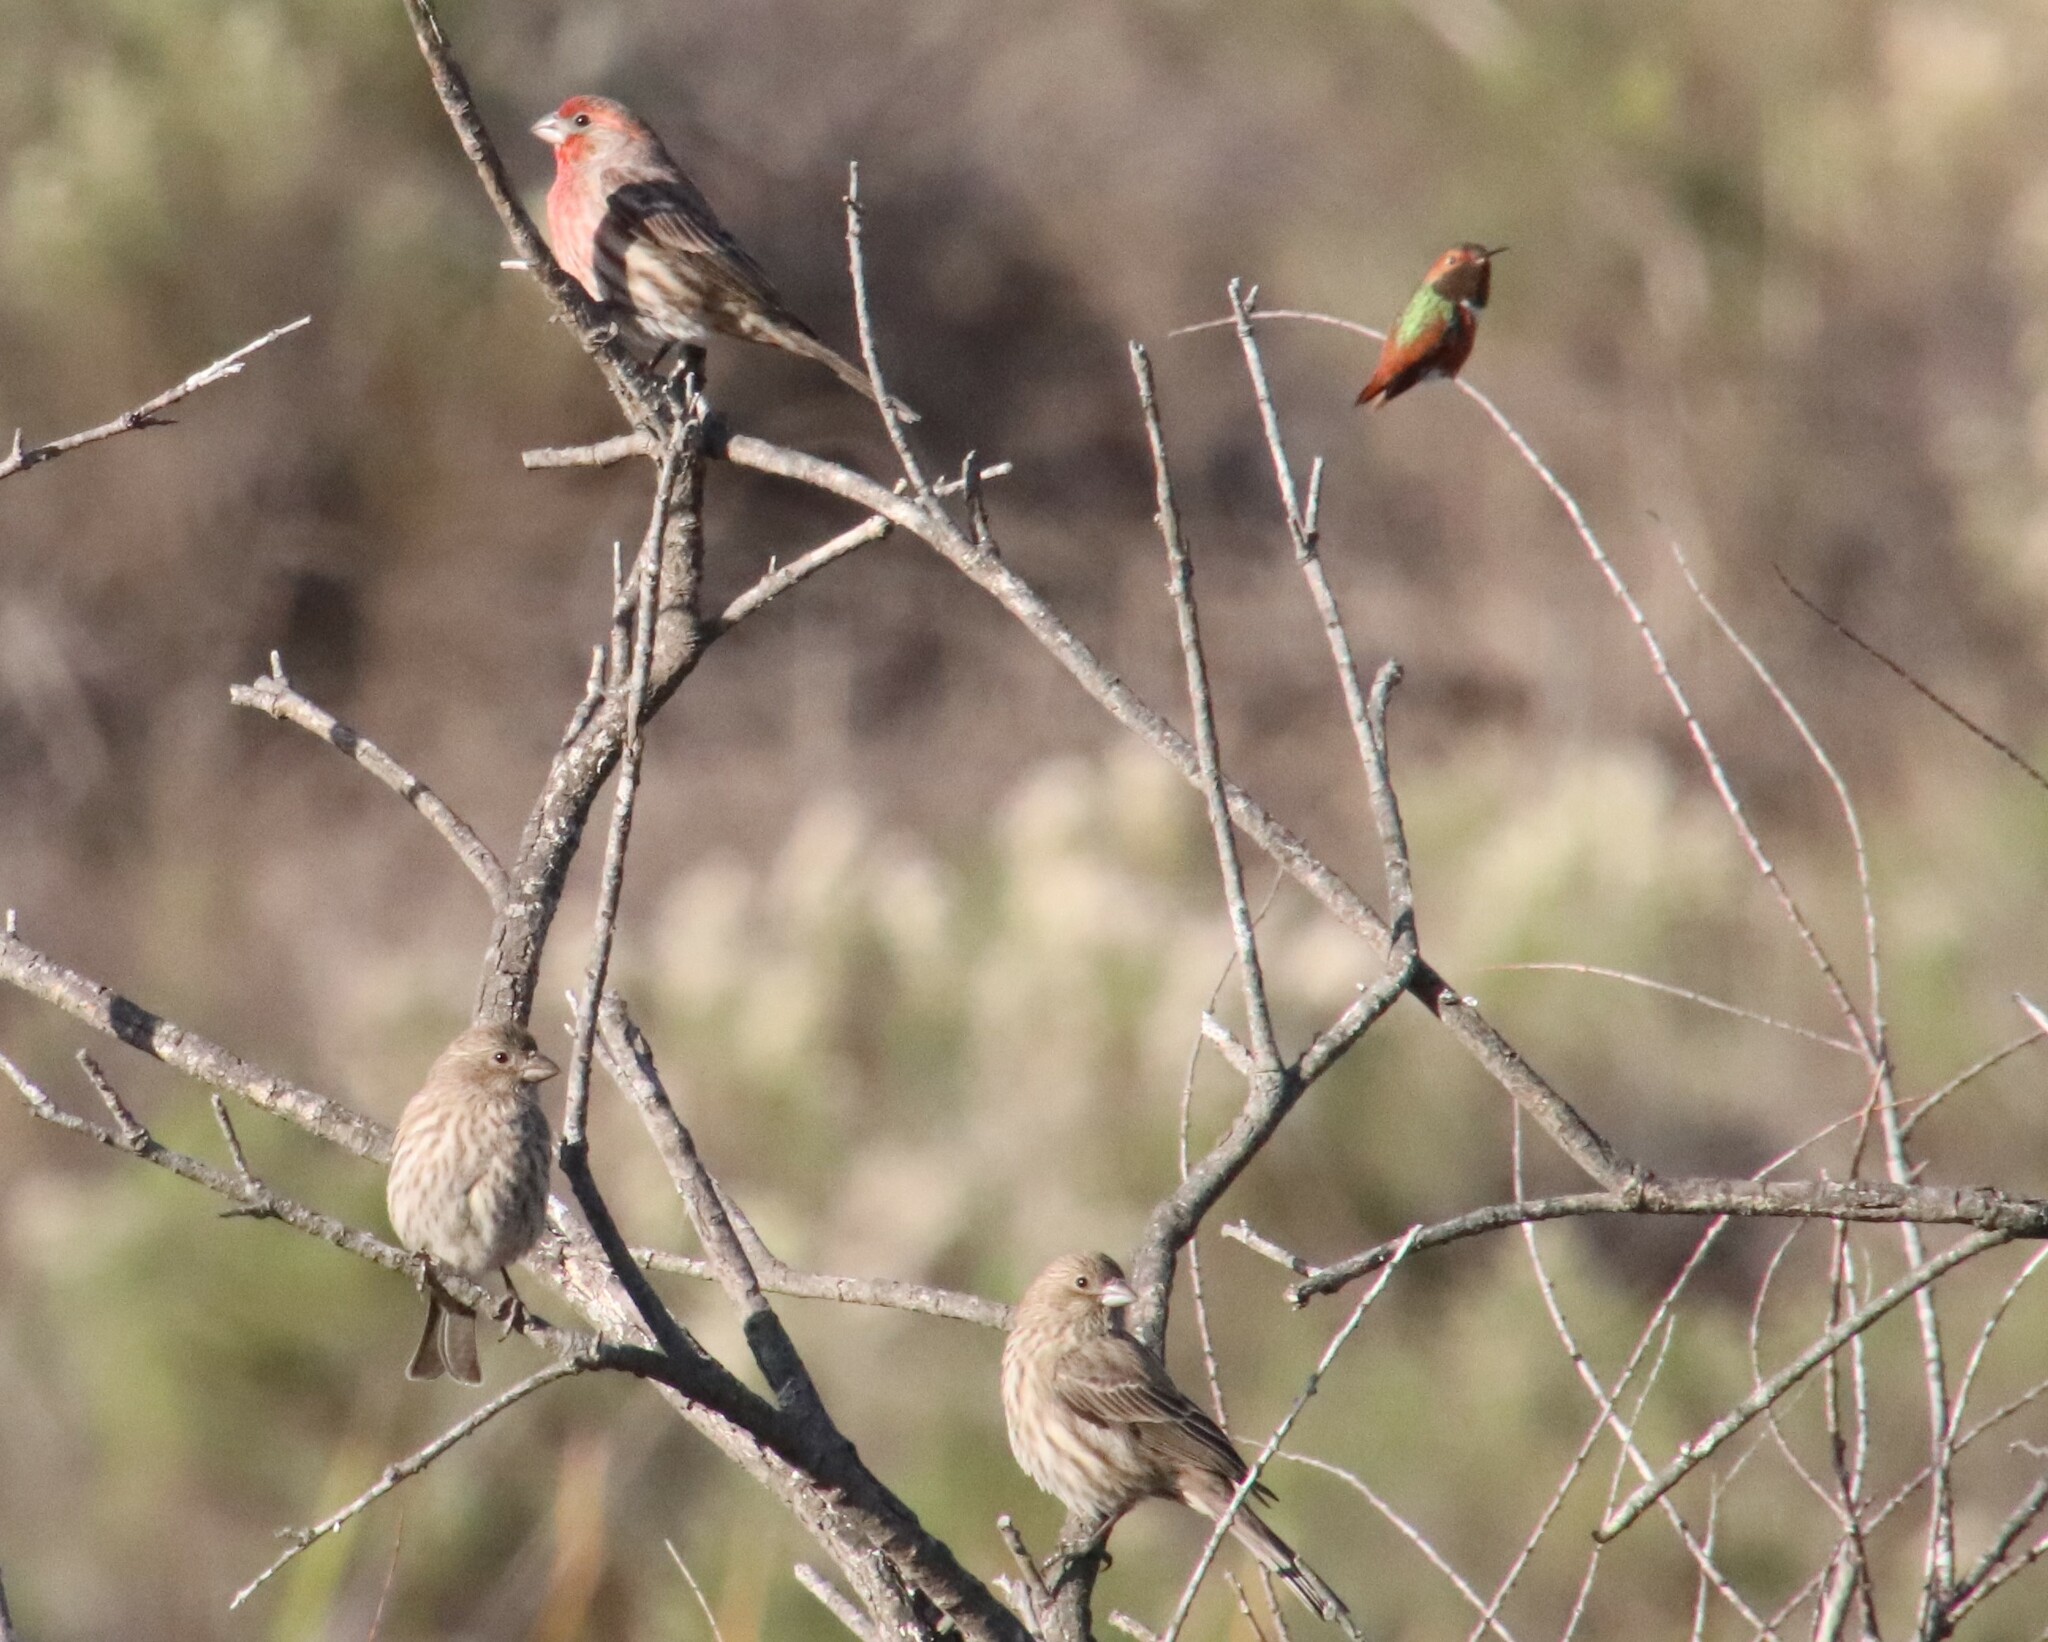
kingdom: Animalia
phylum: Chordata
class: Aves
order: Passeriformes
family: Fringillidae
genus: Haemorhous
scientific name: Haemorhous mexicanus
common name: House finch
